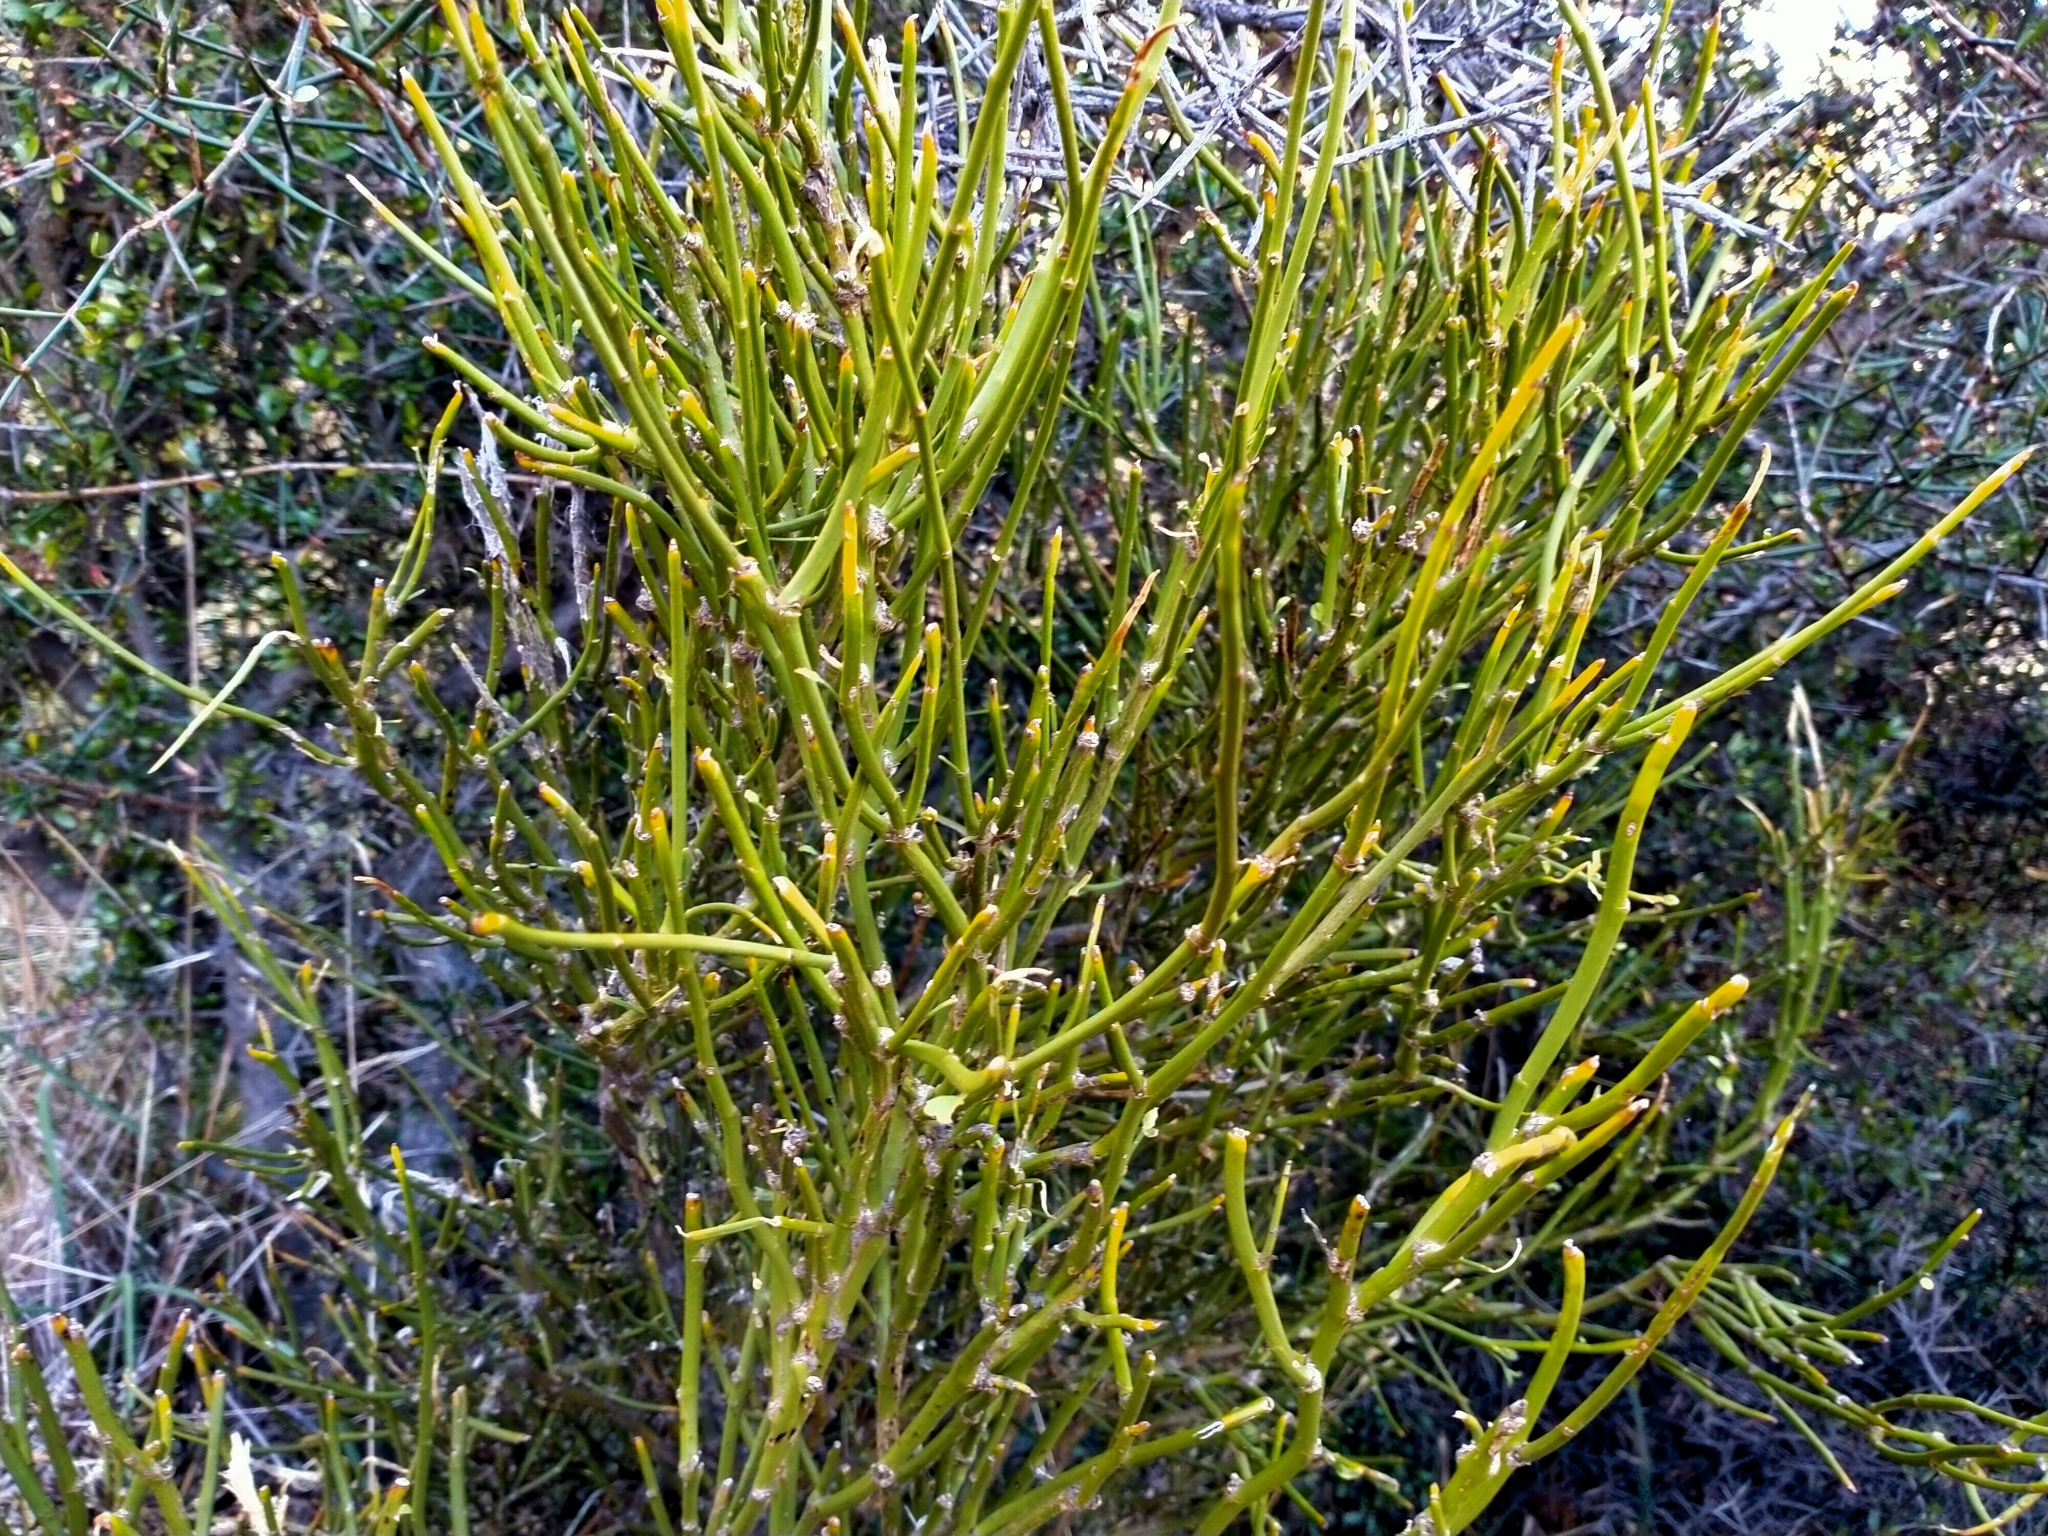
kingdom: Plantae
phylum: Tracheophyta
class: Magnoliopsida
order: Fabales
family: Fabaceae
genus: Carmichaelia
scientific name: Carmichaelia petriei
